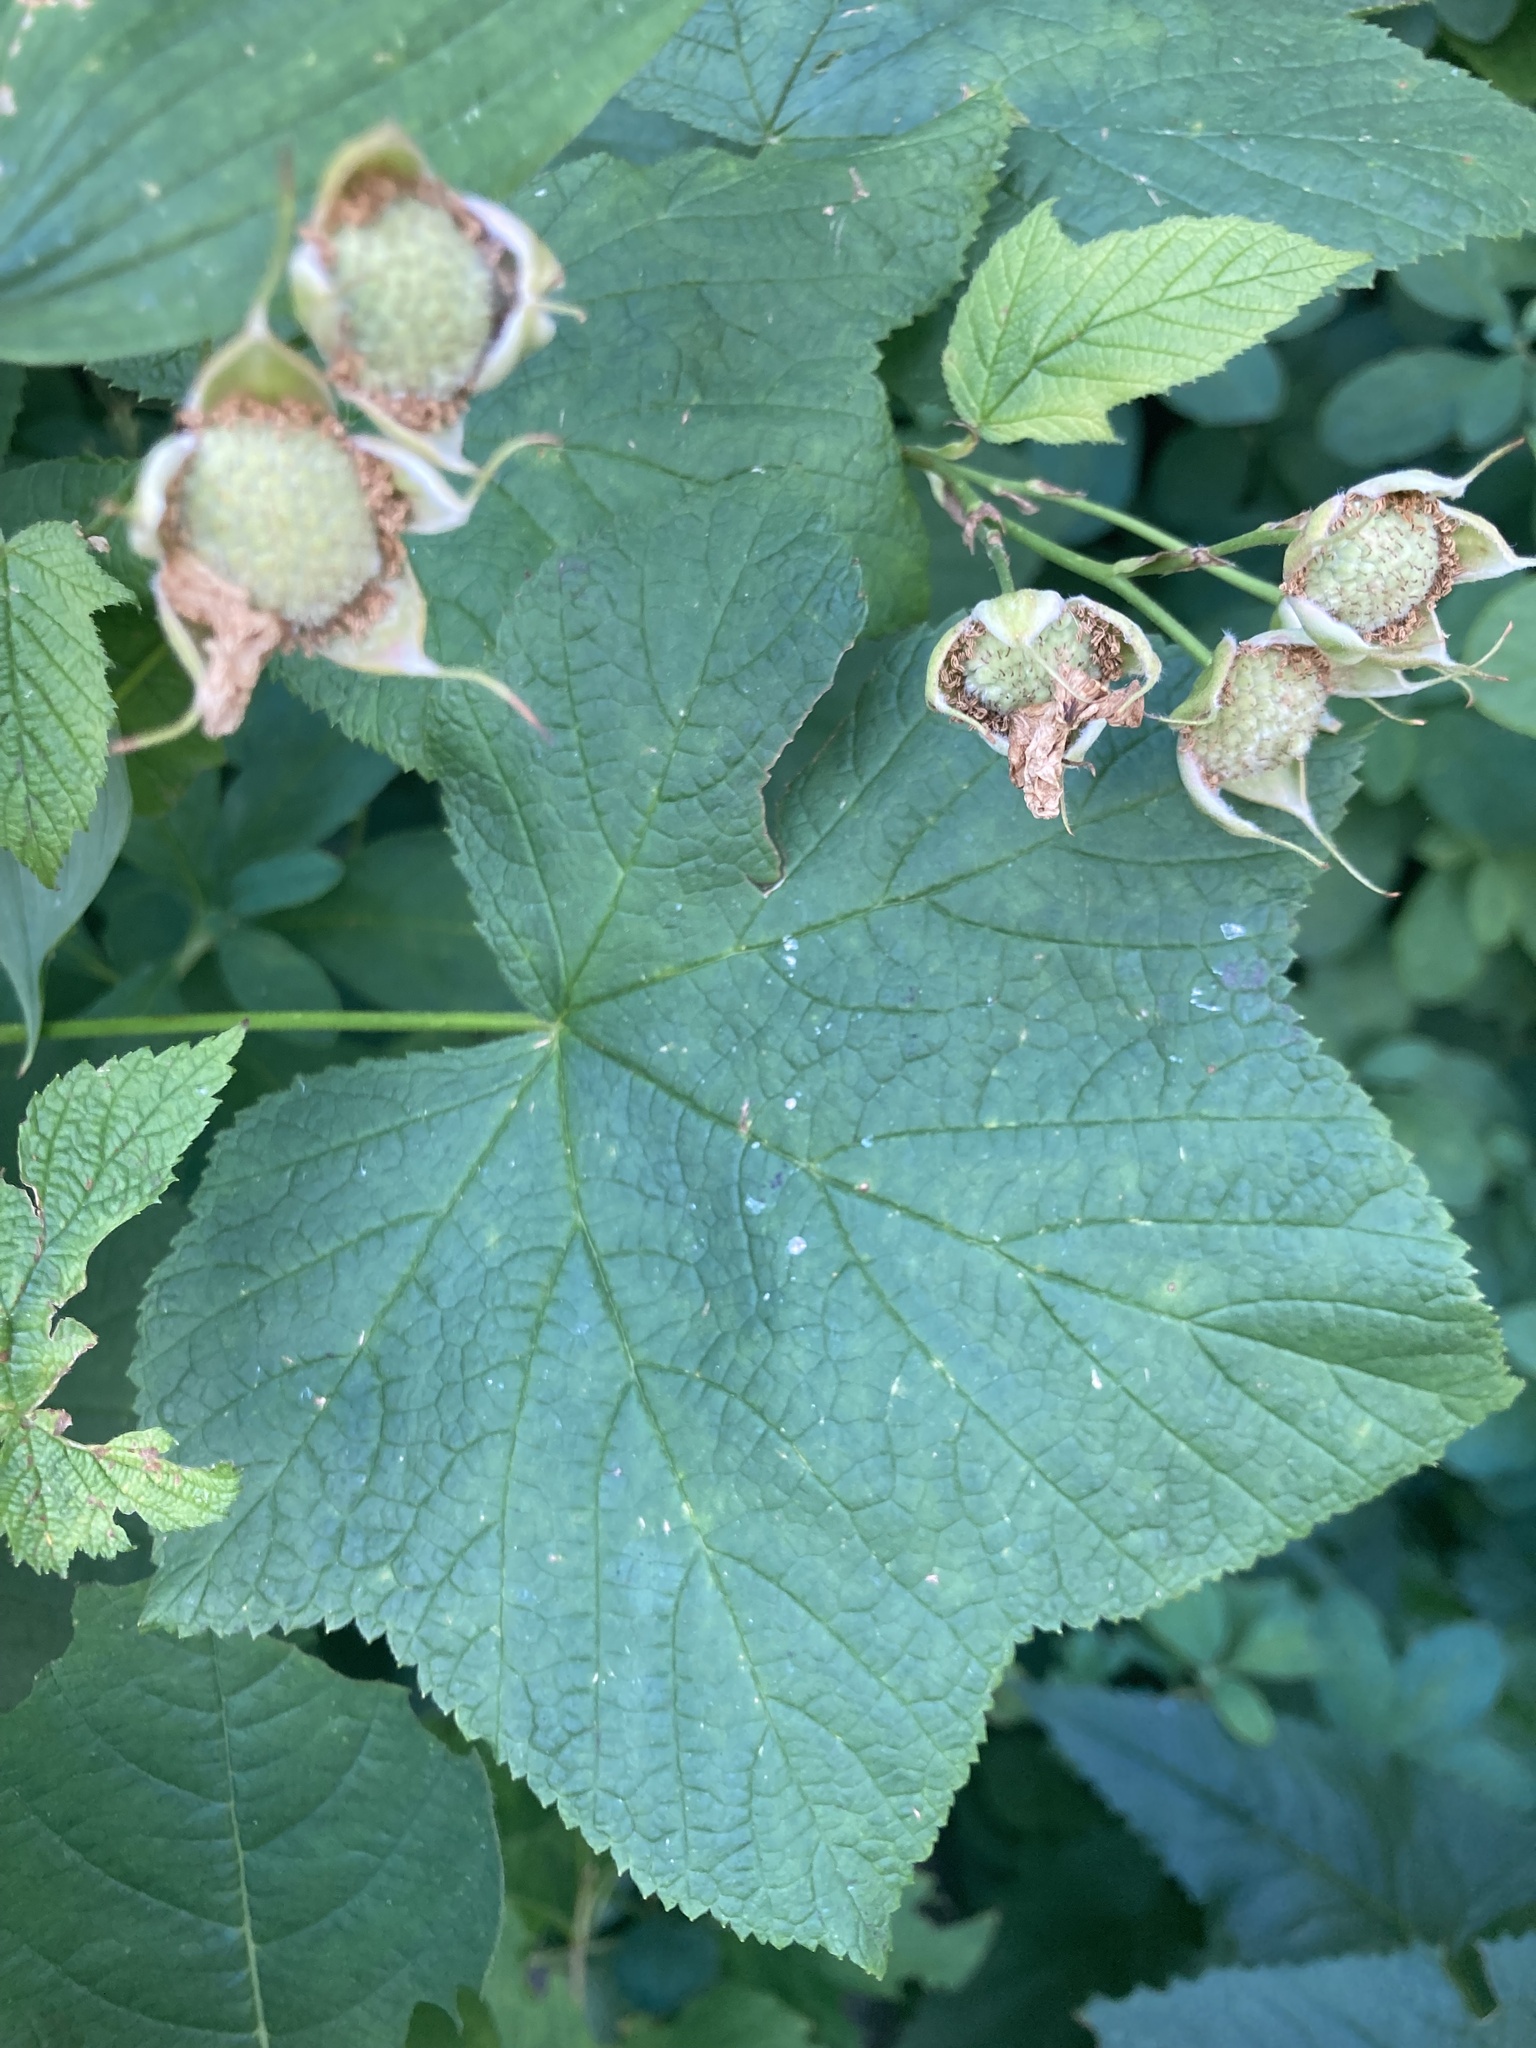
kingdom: Plantae
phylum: Tracheophyta
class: Magnoliopsida
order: Rosales
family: Rosaceae
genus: Rubus
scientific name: Rubus parviflorus
